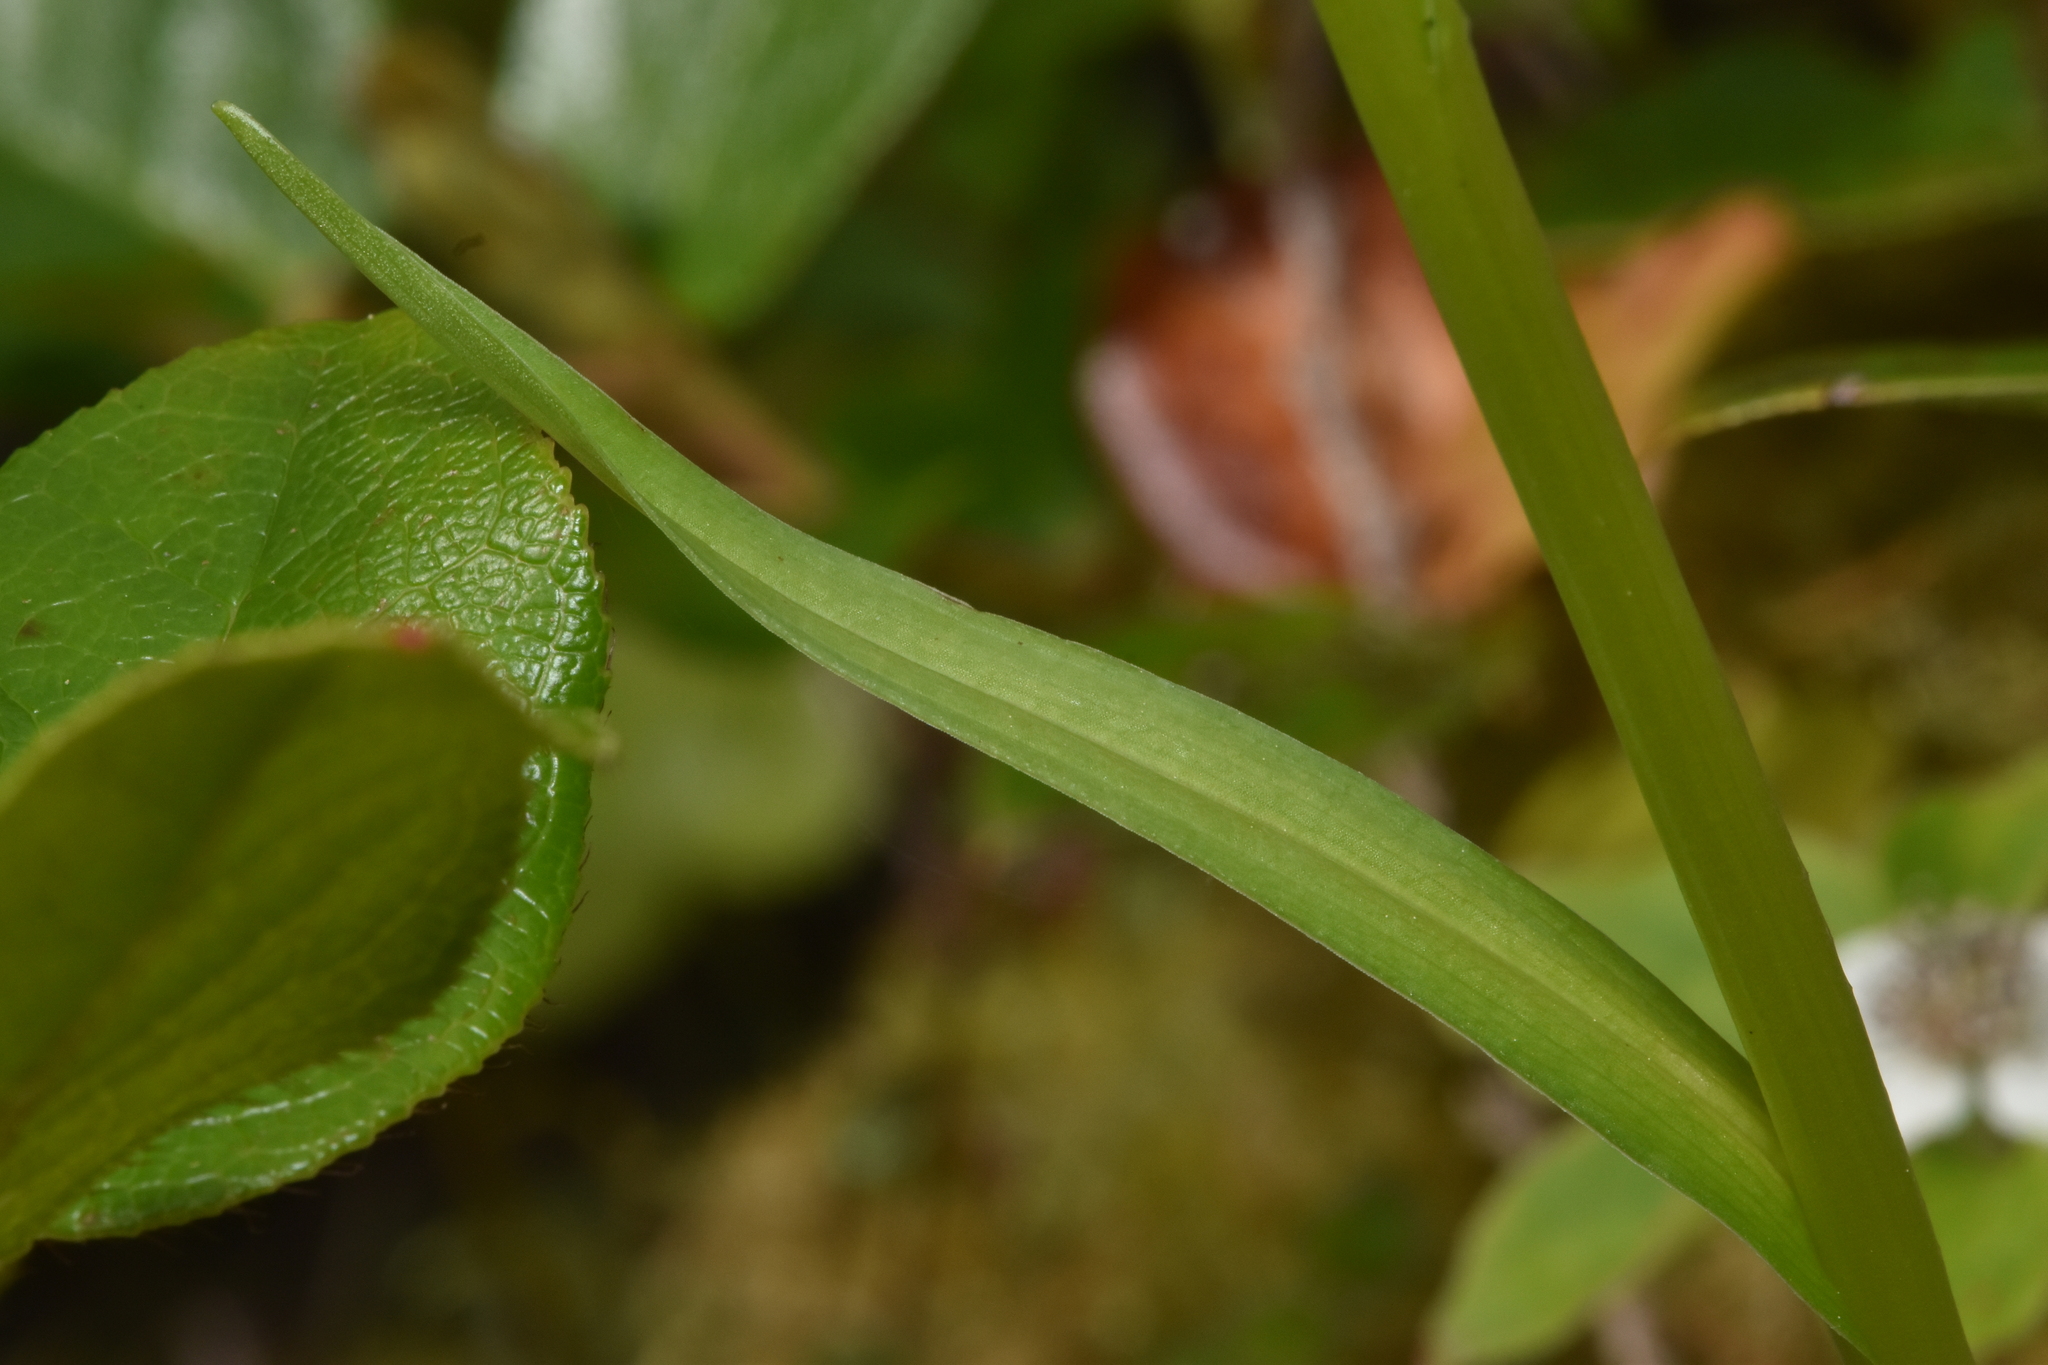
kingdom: Plantae
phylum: Tracheophyta
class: Liliopsida
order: Asparagales
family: Orchidaceae
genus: Platanthera
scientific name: Platanthera stricta
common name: Slender bog orchid
